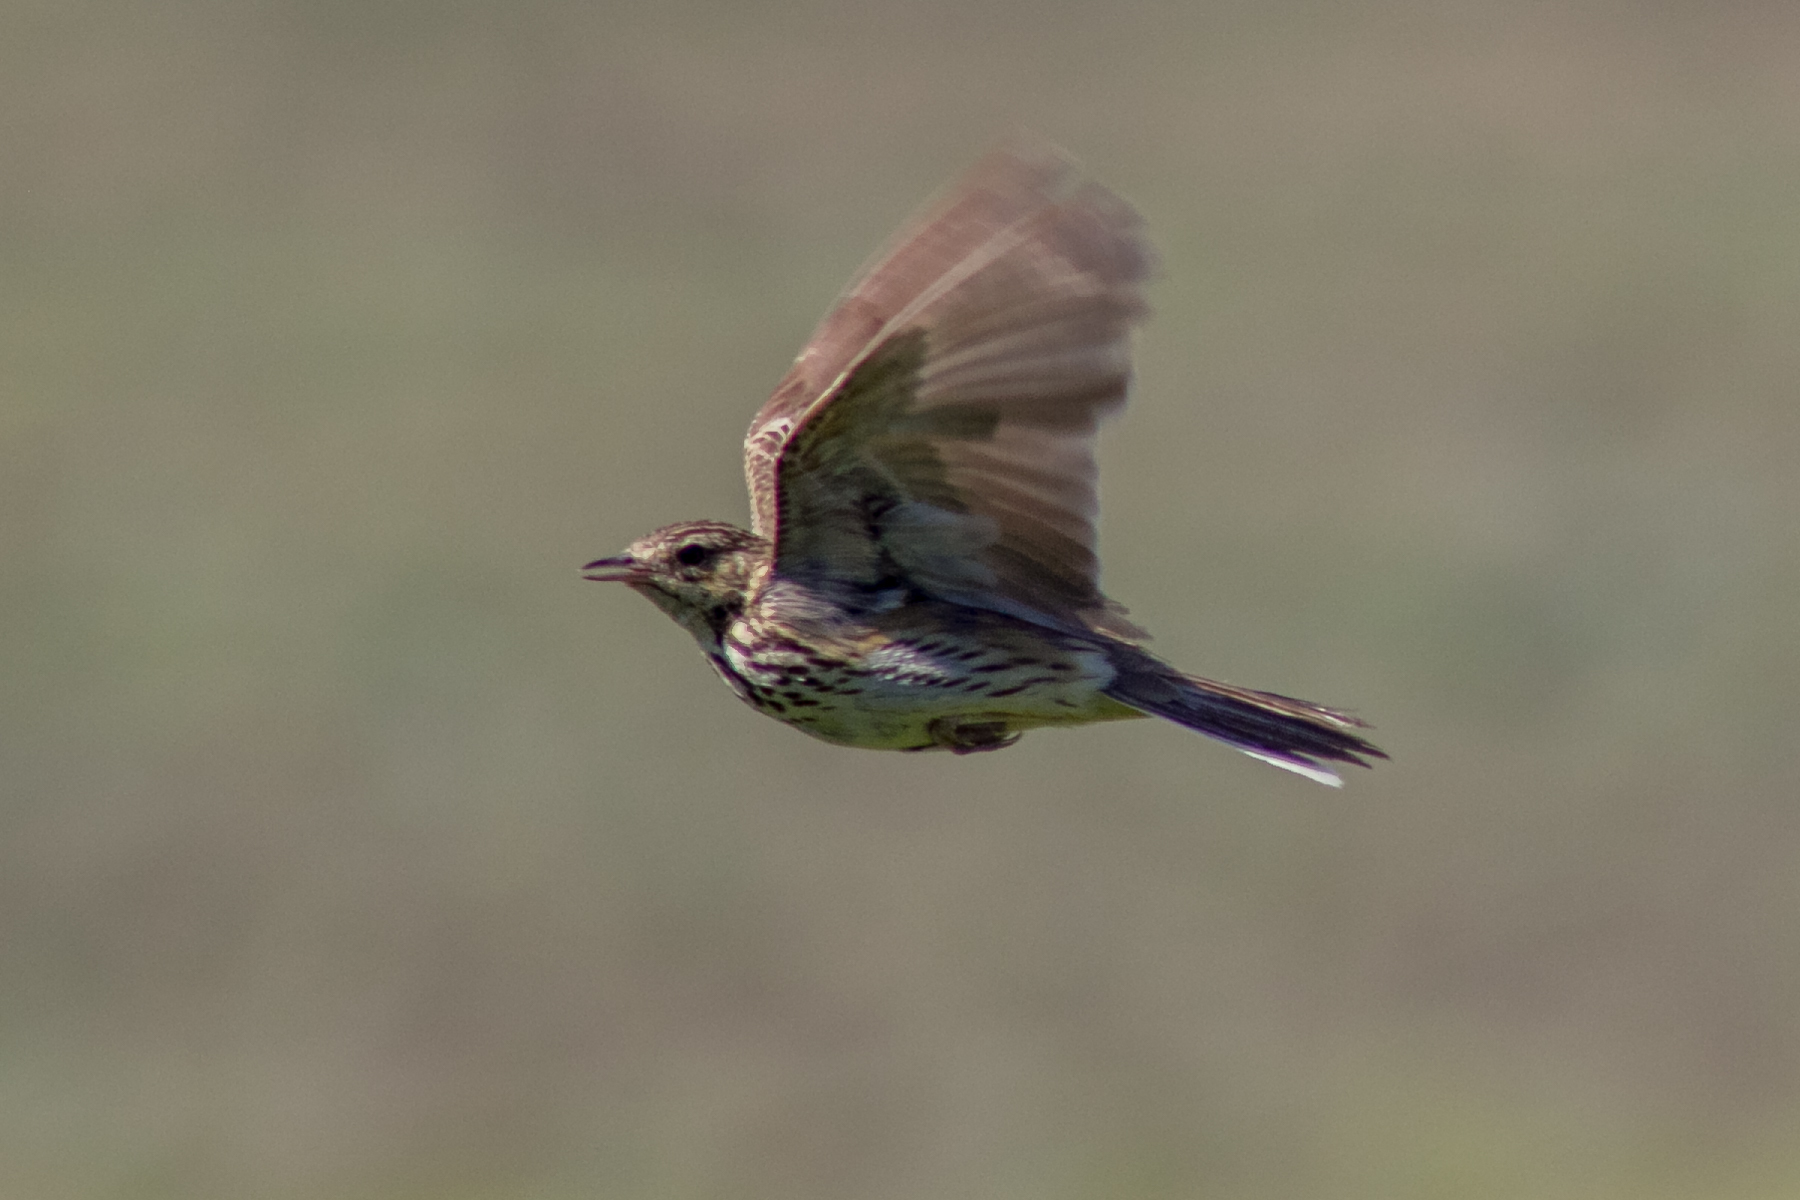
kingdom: Animalia
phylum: Chordata
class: Aves
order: Passeriformes
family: Motacillidae
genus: Anthus
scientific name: Anthus trivialis
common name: Tree pipit
